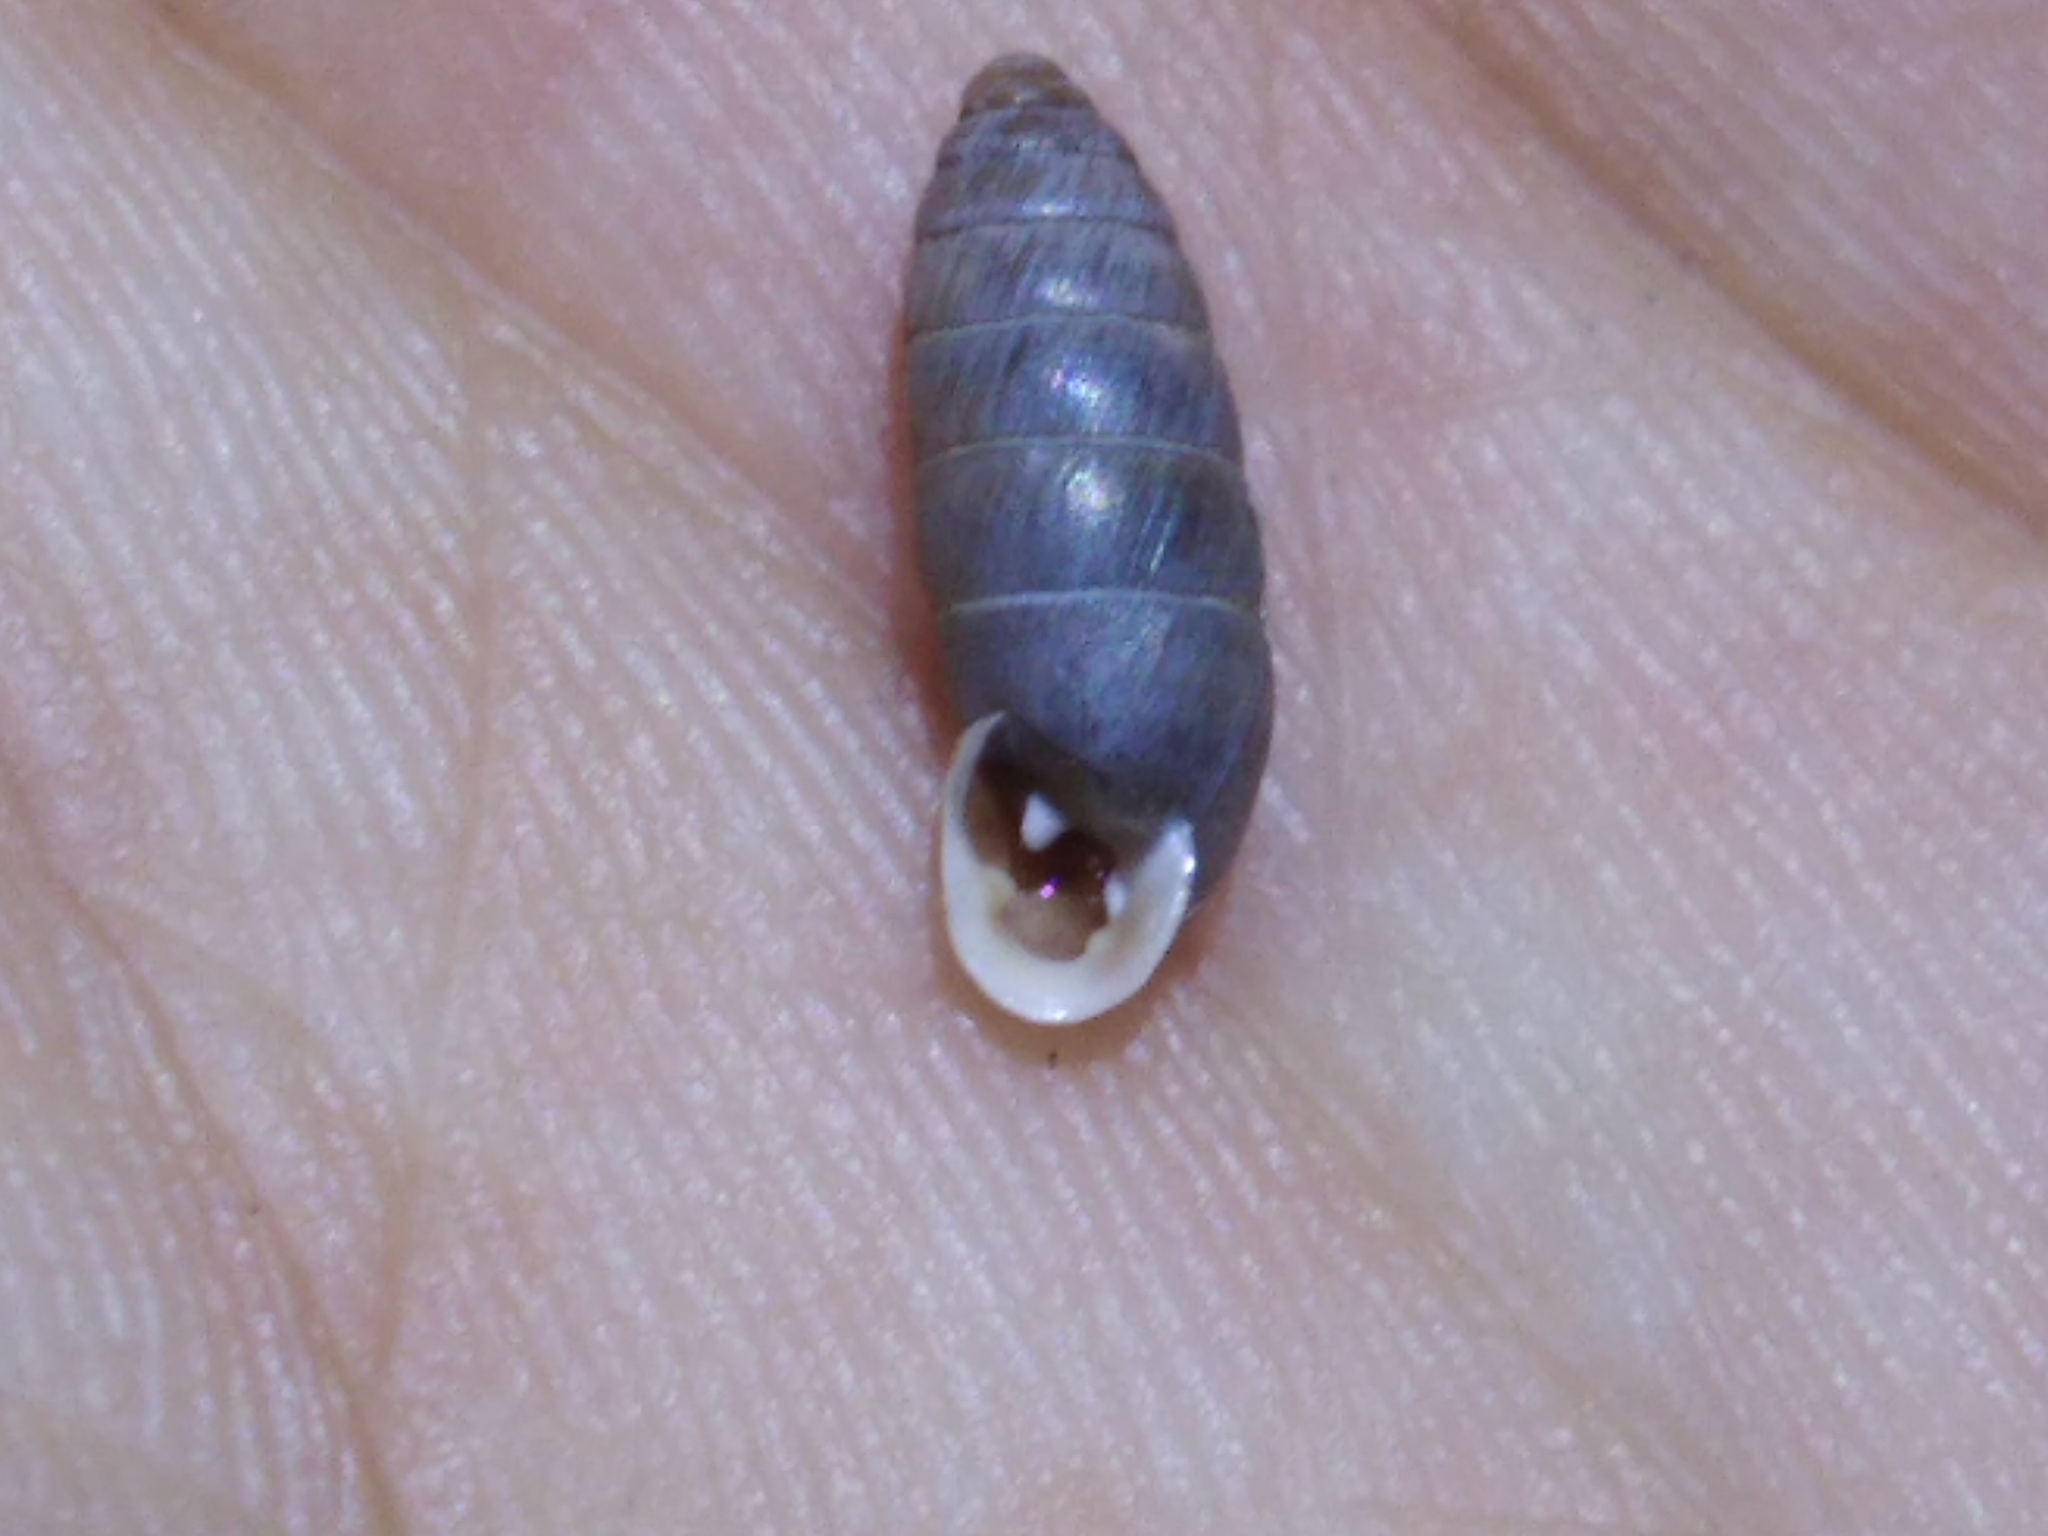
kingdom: Animalia
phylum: Mollusca
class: Gastropoda
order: Stylommatophora
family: Enidae
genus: Jaminia
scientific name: Jaminia quadridens
